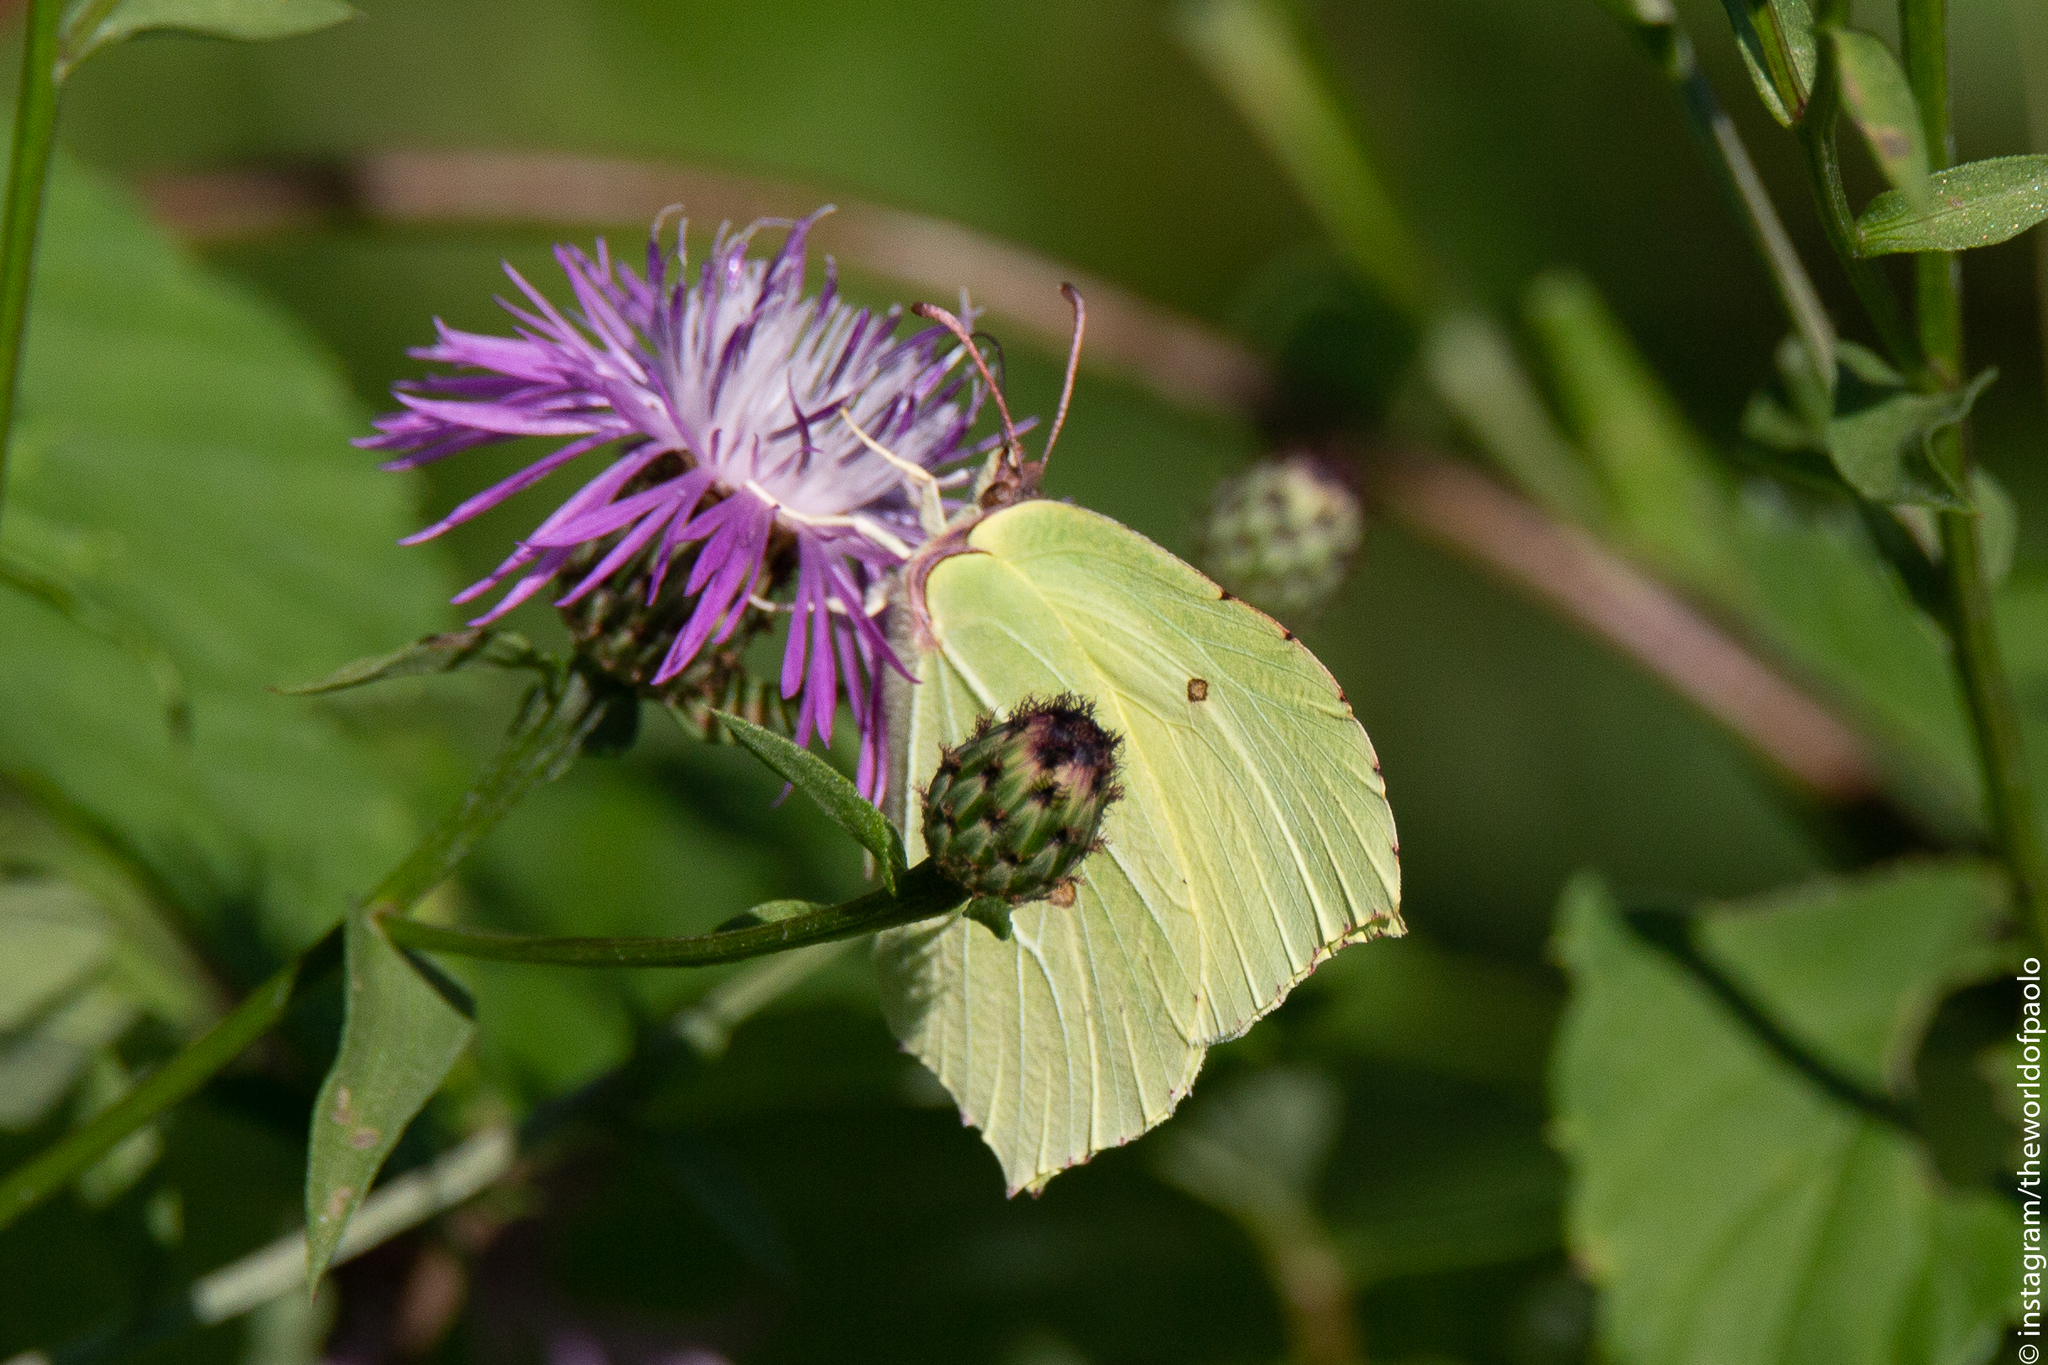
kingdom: Animalia
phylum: Arthropoda
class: Insecta
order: Lepidoptera
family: Pieridae
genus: Gonepteryx
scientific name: Gonepteryx rhamni
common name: Brimstone
